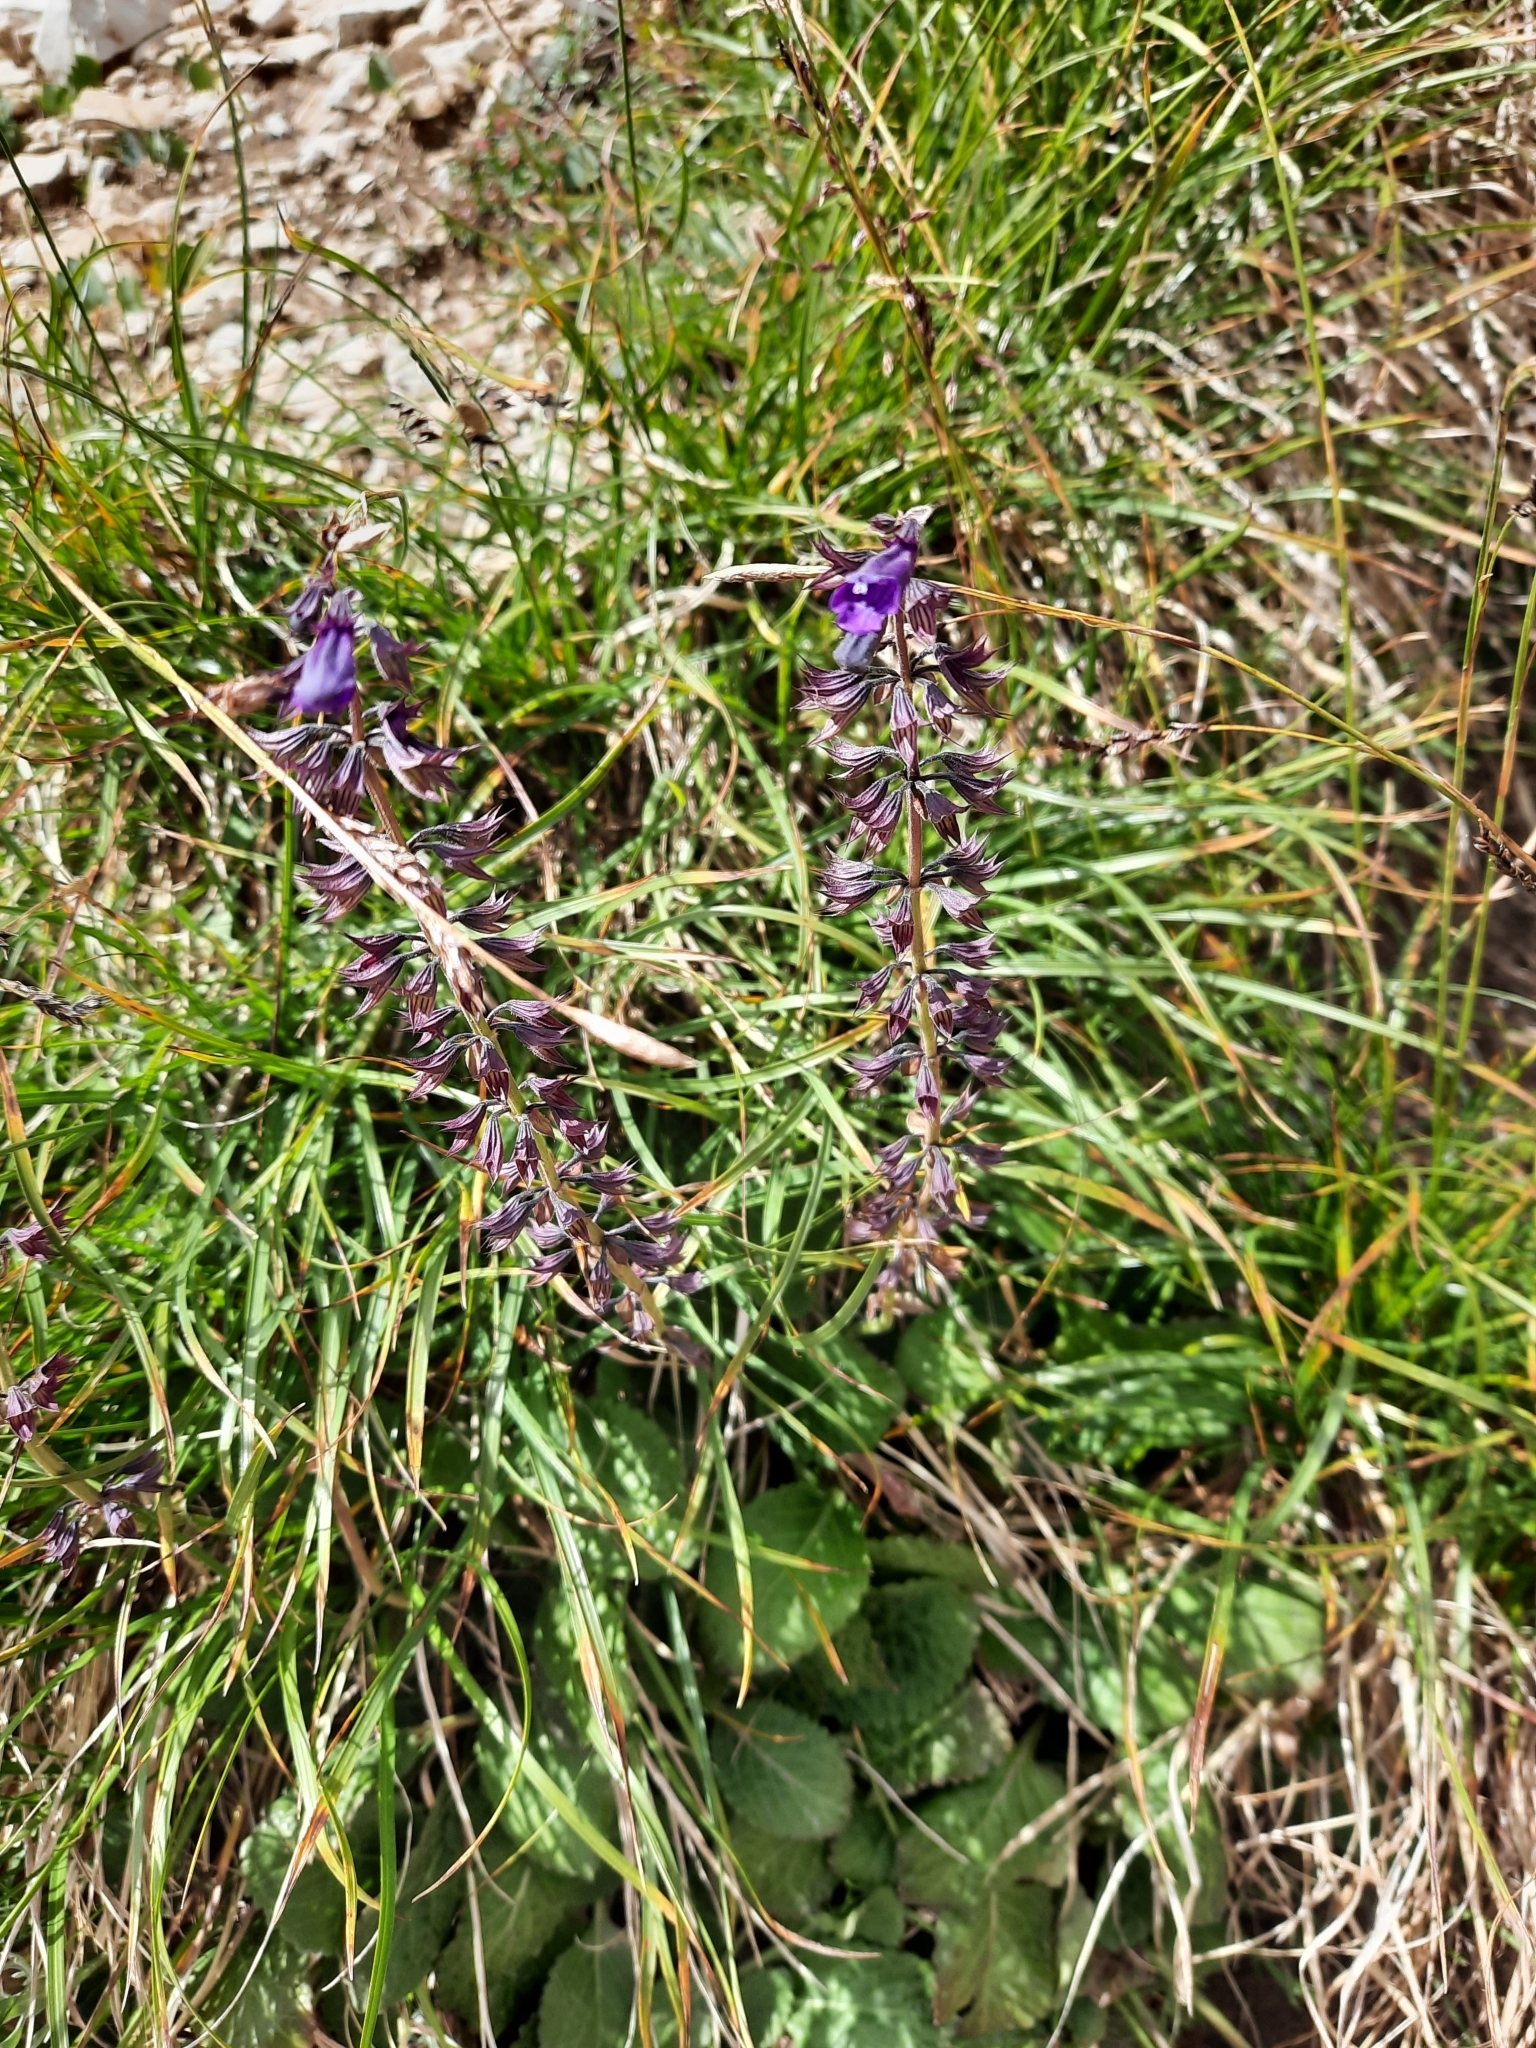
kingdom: Plantae
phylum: Tracheophyta
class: Magnoliopsida
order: Lamiales
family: Lamiaceae
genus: Horminum
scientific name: Horminum pyrenaicum
